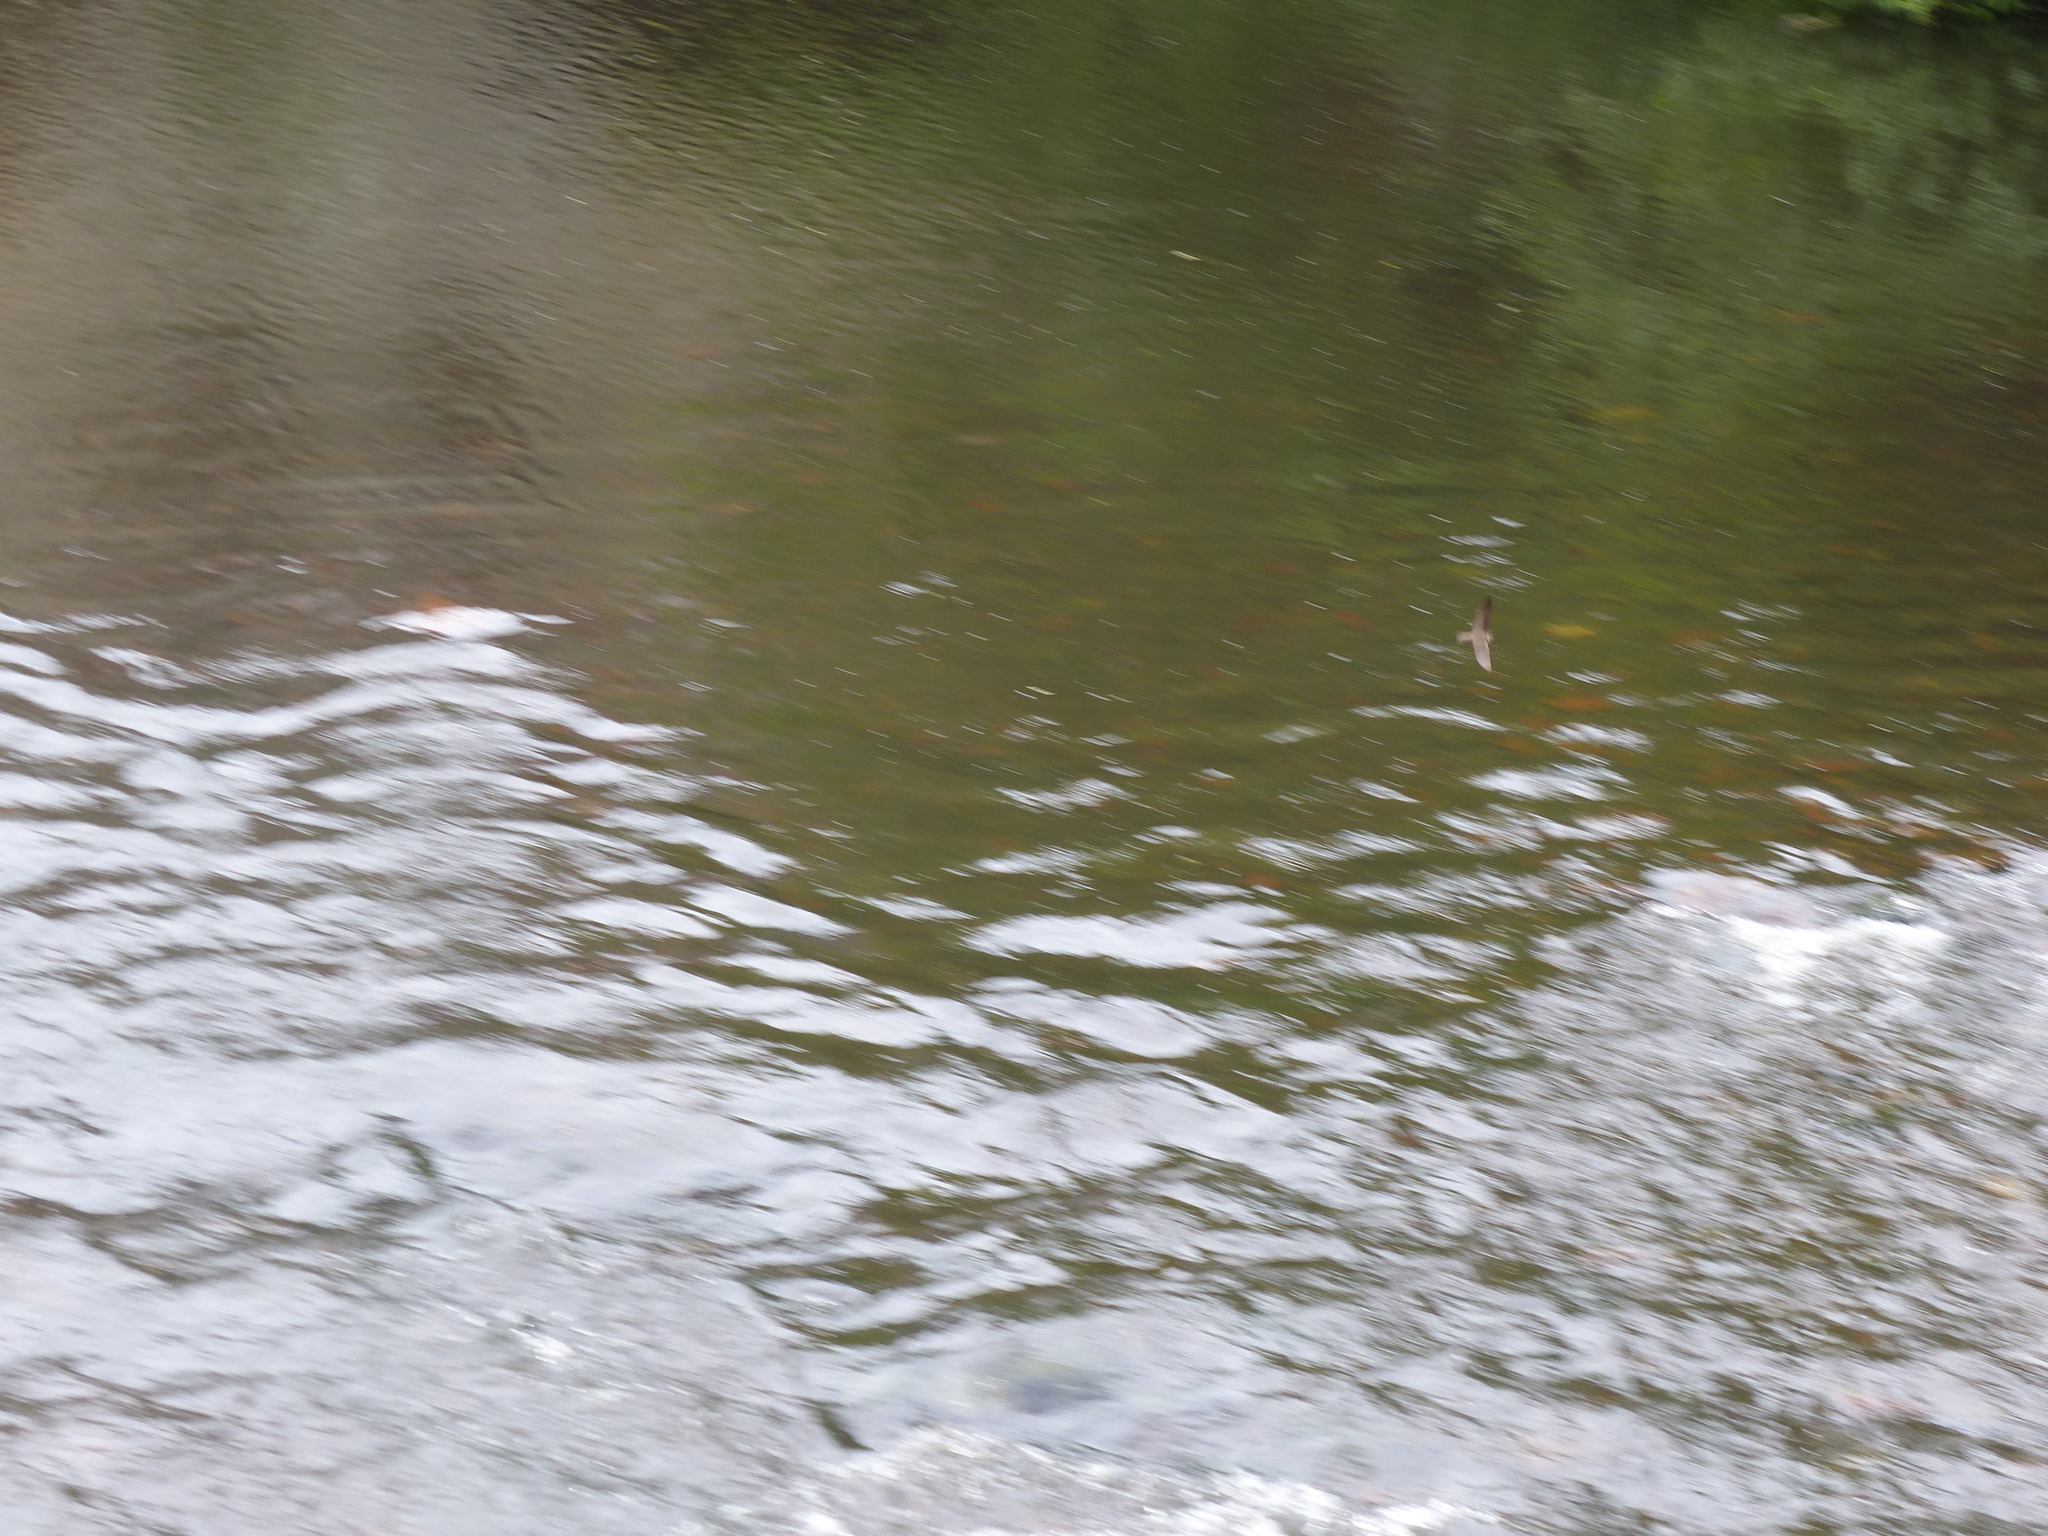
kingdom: Animalia
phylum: Chordata
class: Aves
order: Passeriformes
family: Hirundinidae
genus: Riparia
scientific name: Riparia riparia
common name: Sand martin
